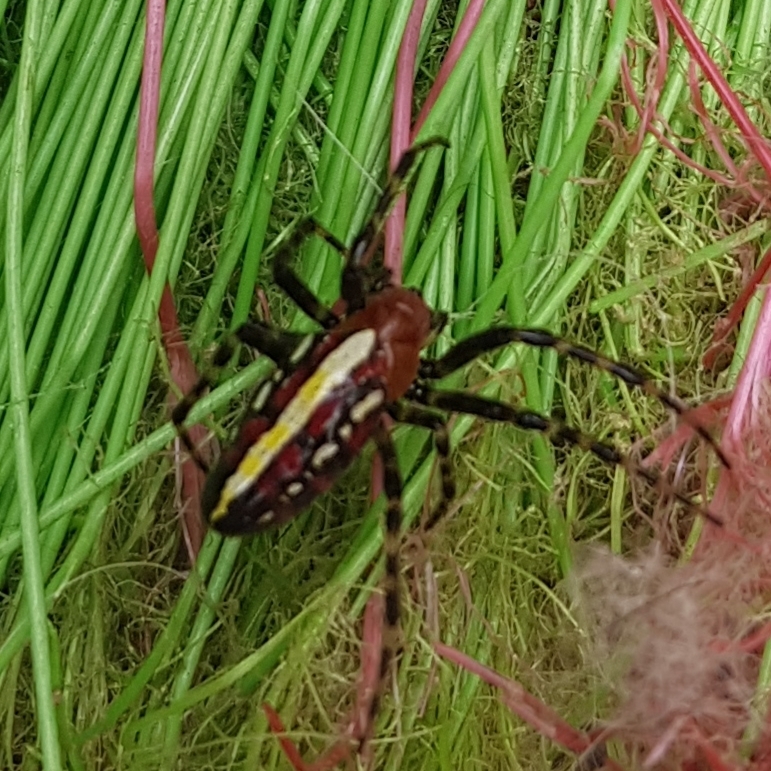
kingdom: Animalia
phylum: Arthropoda
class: Arachnida
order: Araneae
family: Araneidae
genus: Alpaida
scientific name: Alpaida grayi
